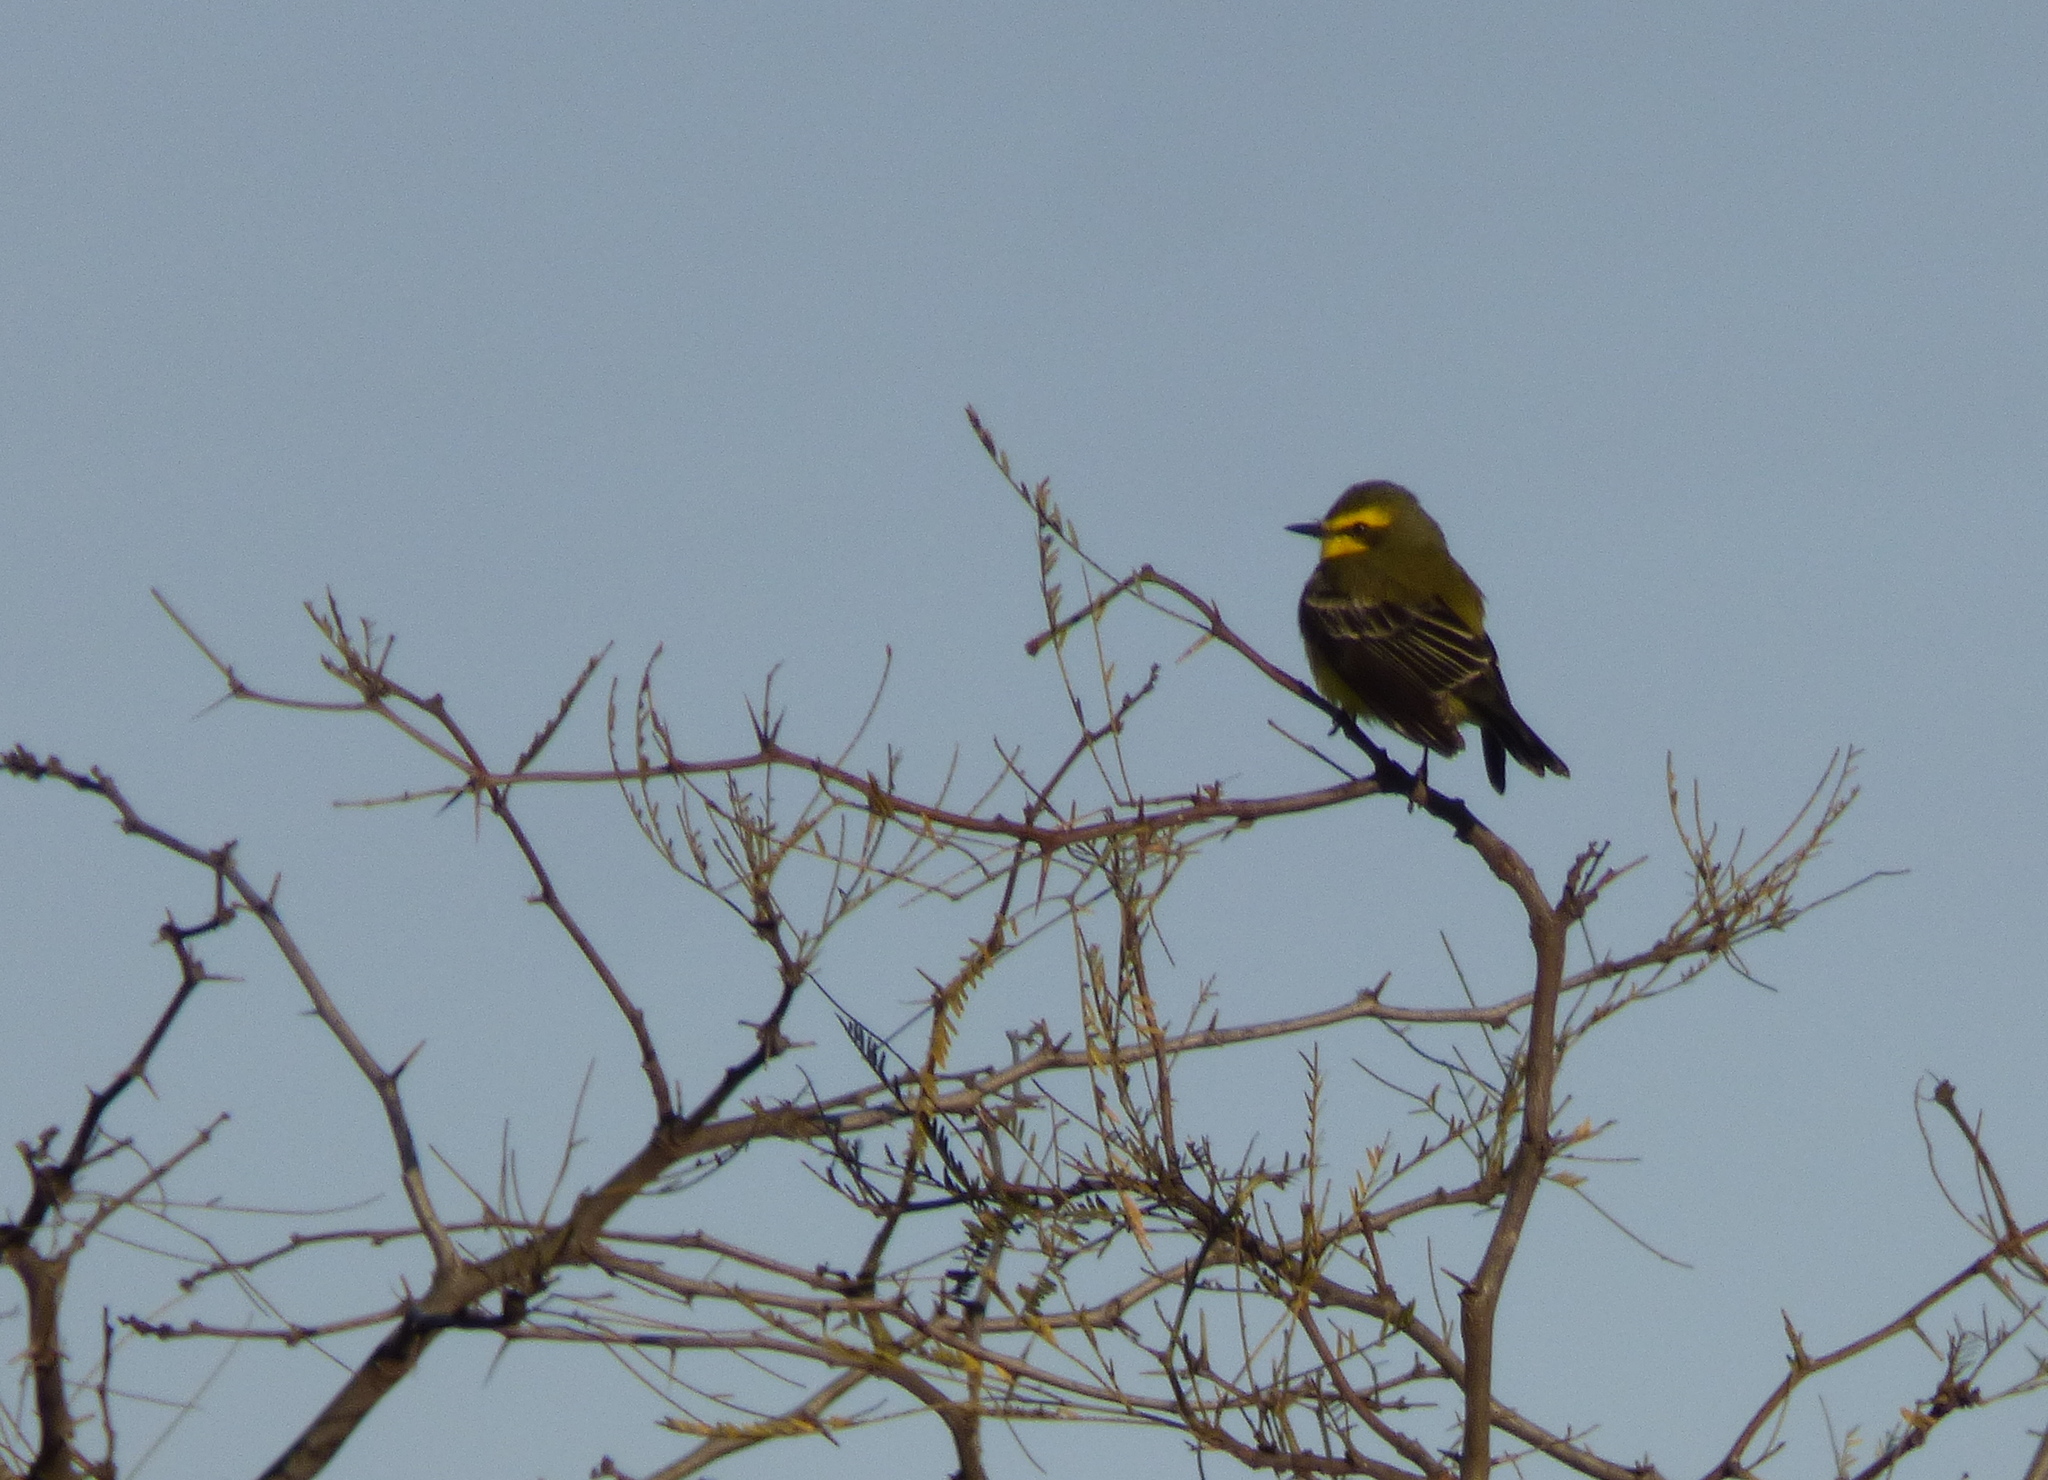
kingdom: Animalia
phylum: Chordata
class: Aves
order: Passeriformes
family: Tyrannidae
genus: Satrapa
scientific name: Satrapa icterophrys
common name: Yellow-browed tyrant
